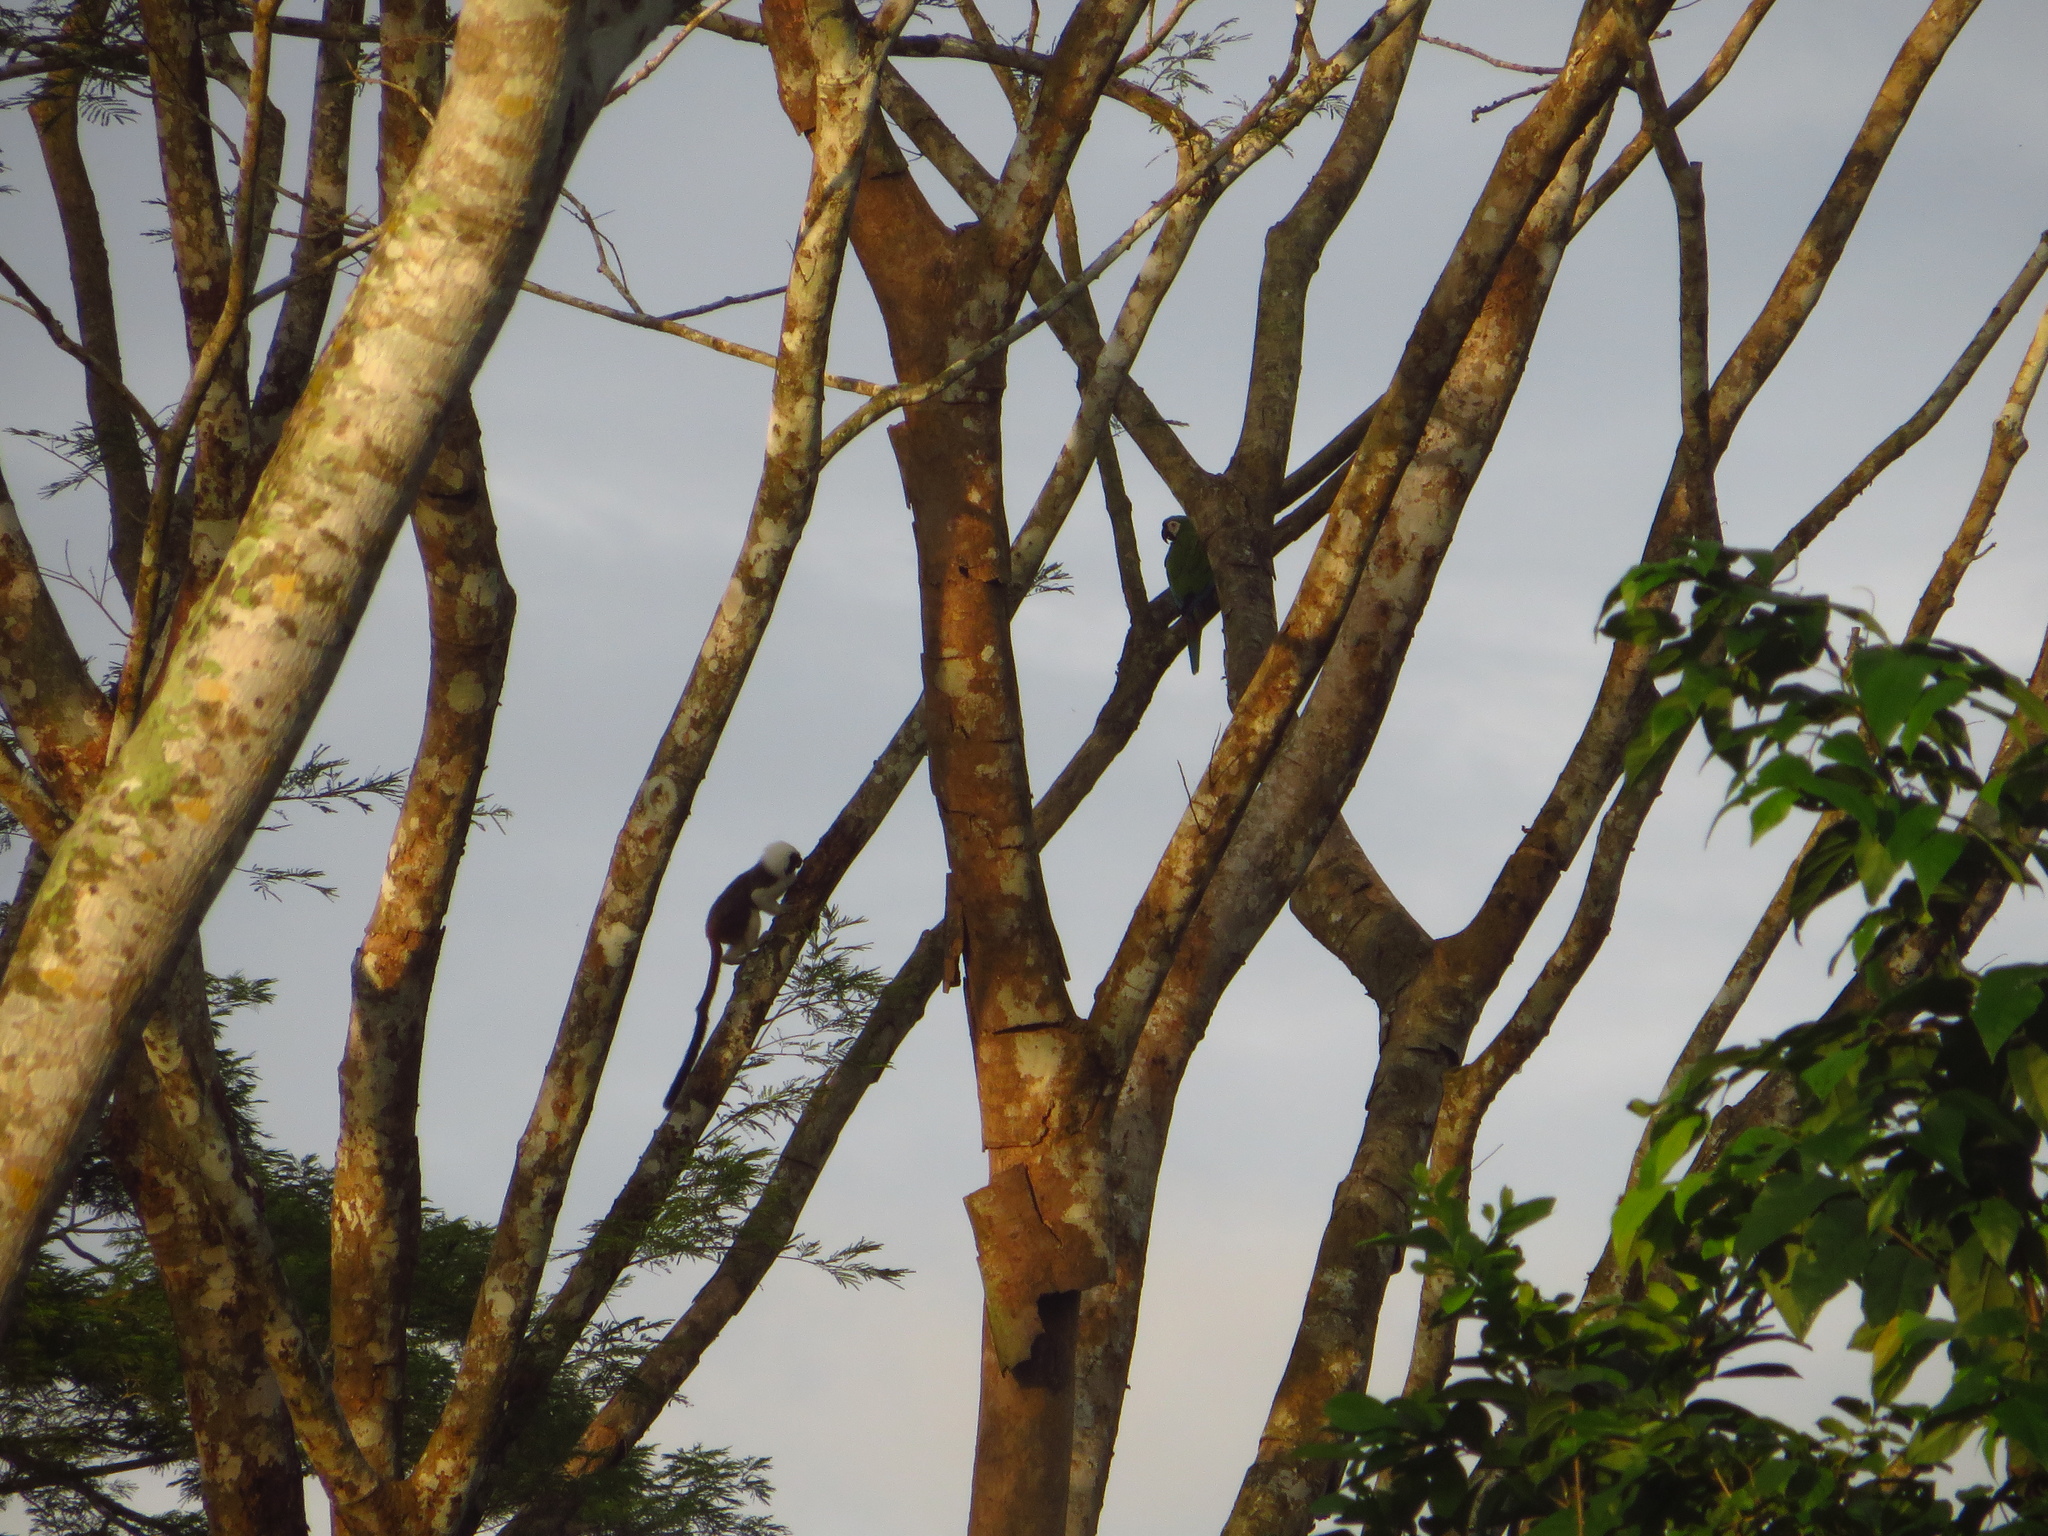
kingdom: Animalia
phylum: Chordata
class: Mammalia
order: Primates
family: Callitrichidae
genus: Saguinus
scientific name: Saguinus oedipus
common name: Cottontop tamarin
